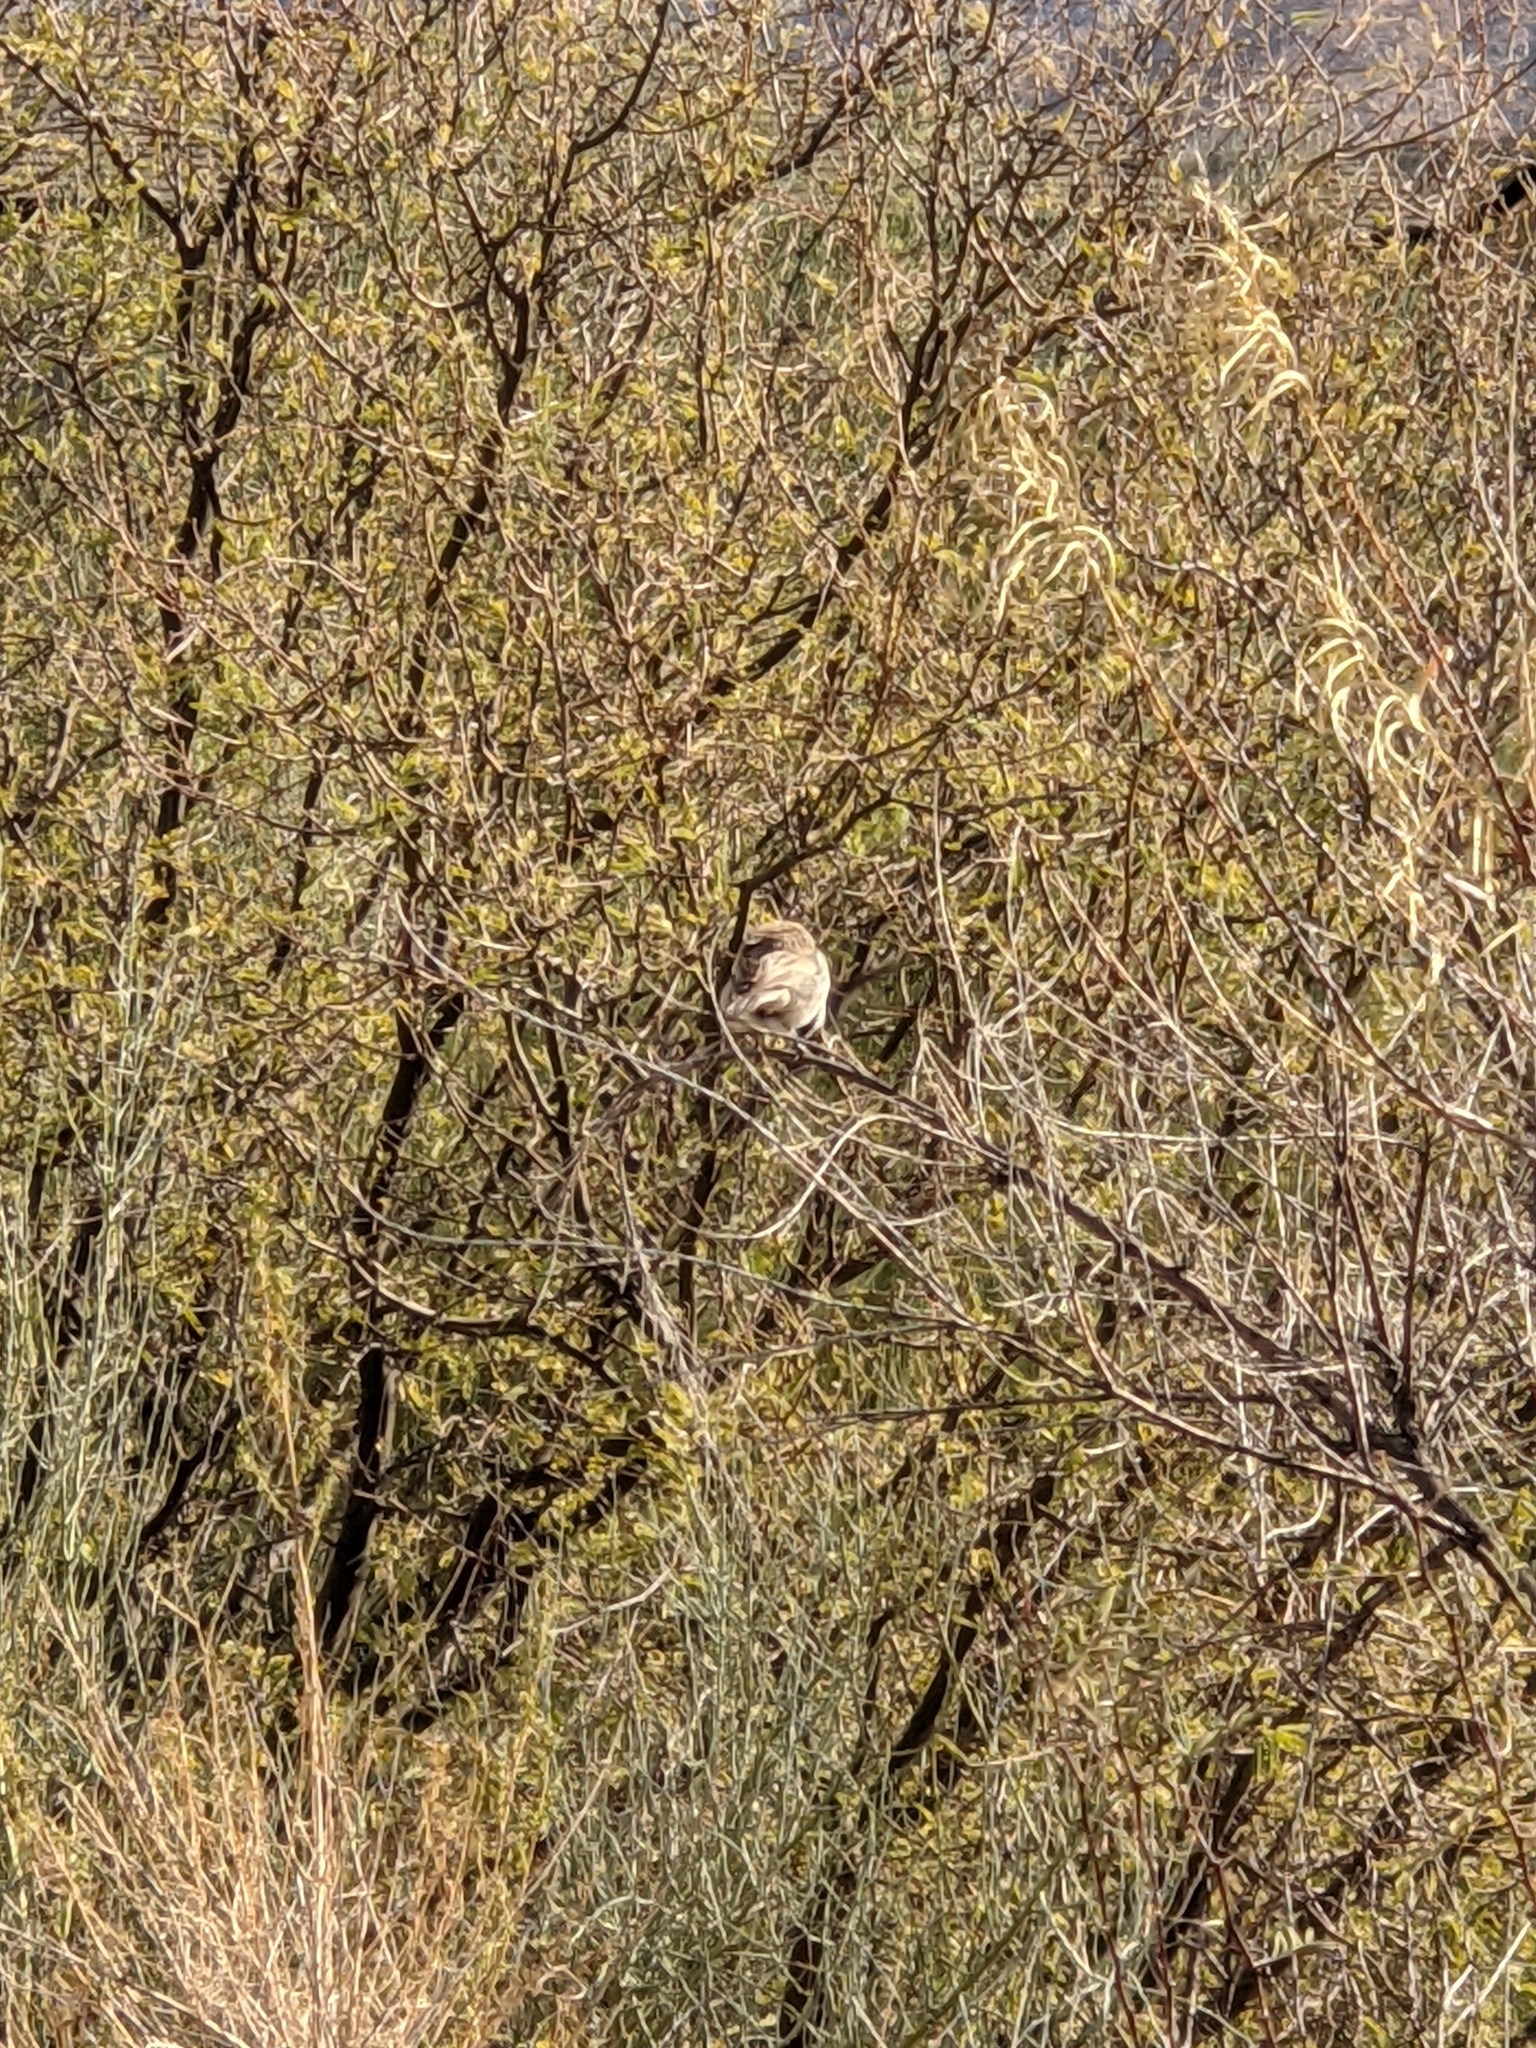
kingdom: Animalia
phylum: Chordata
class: Aves
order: Passeriformes
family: Passerellidae
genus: Amphispiza
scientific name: Amphispiza bilineata
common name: Black-throated sparrow
